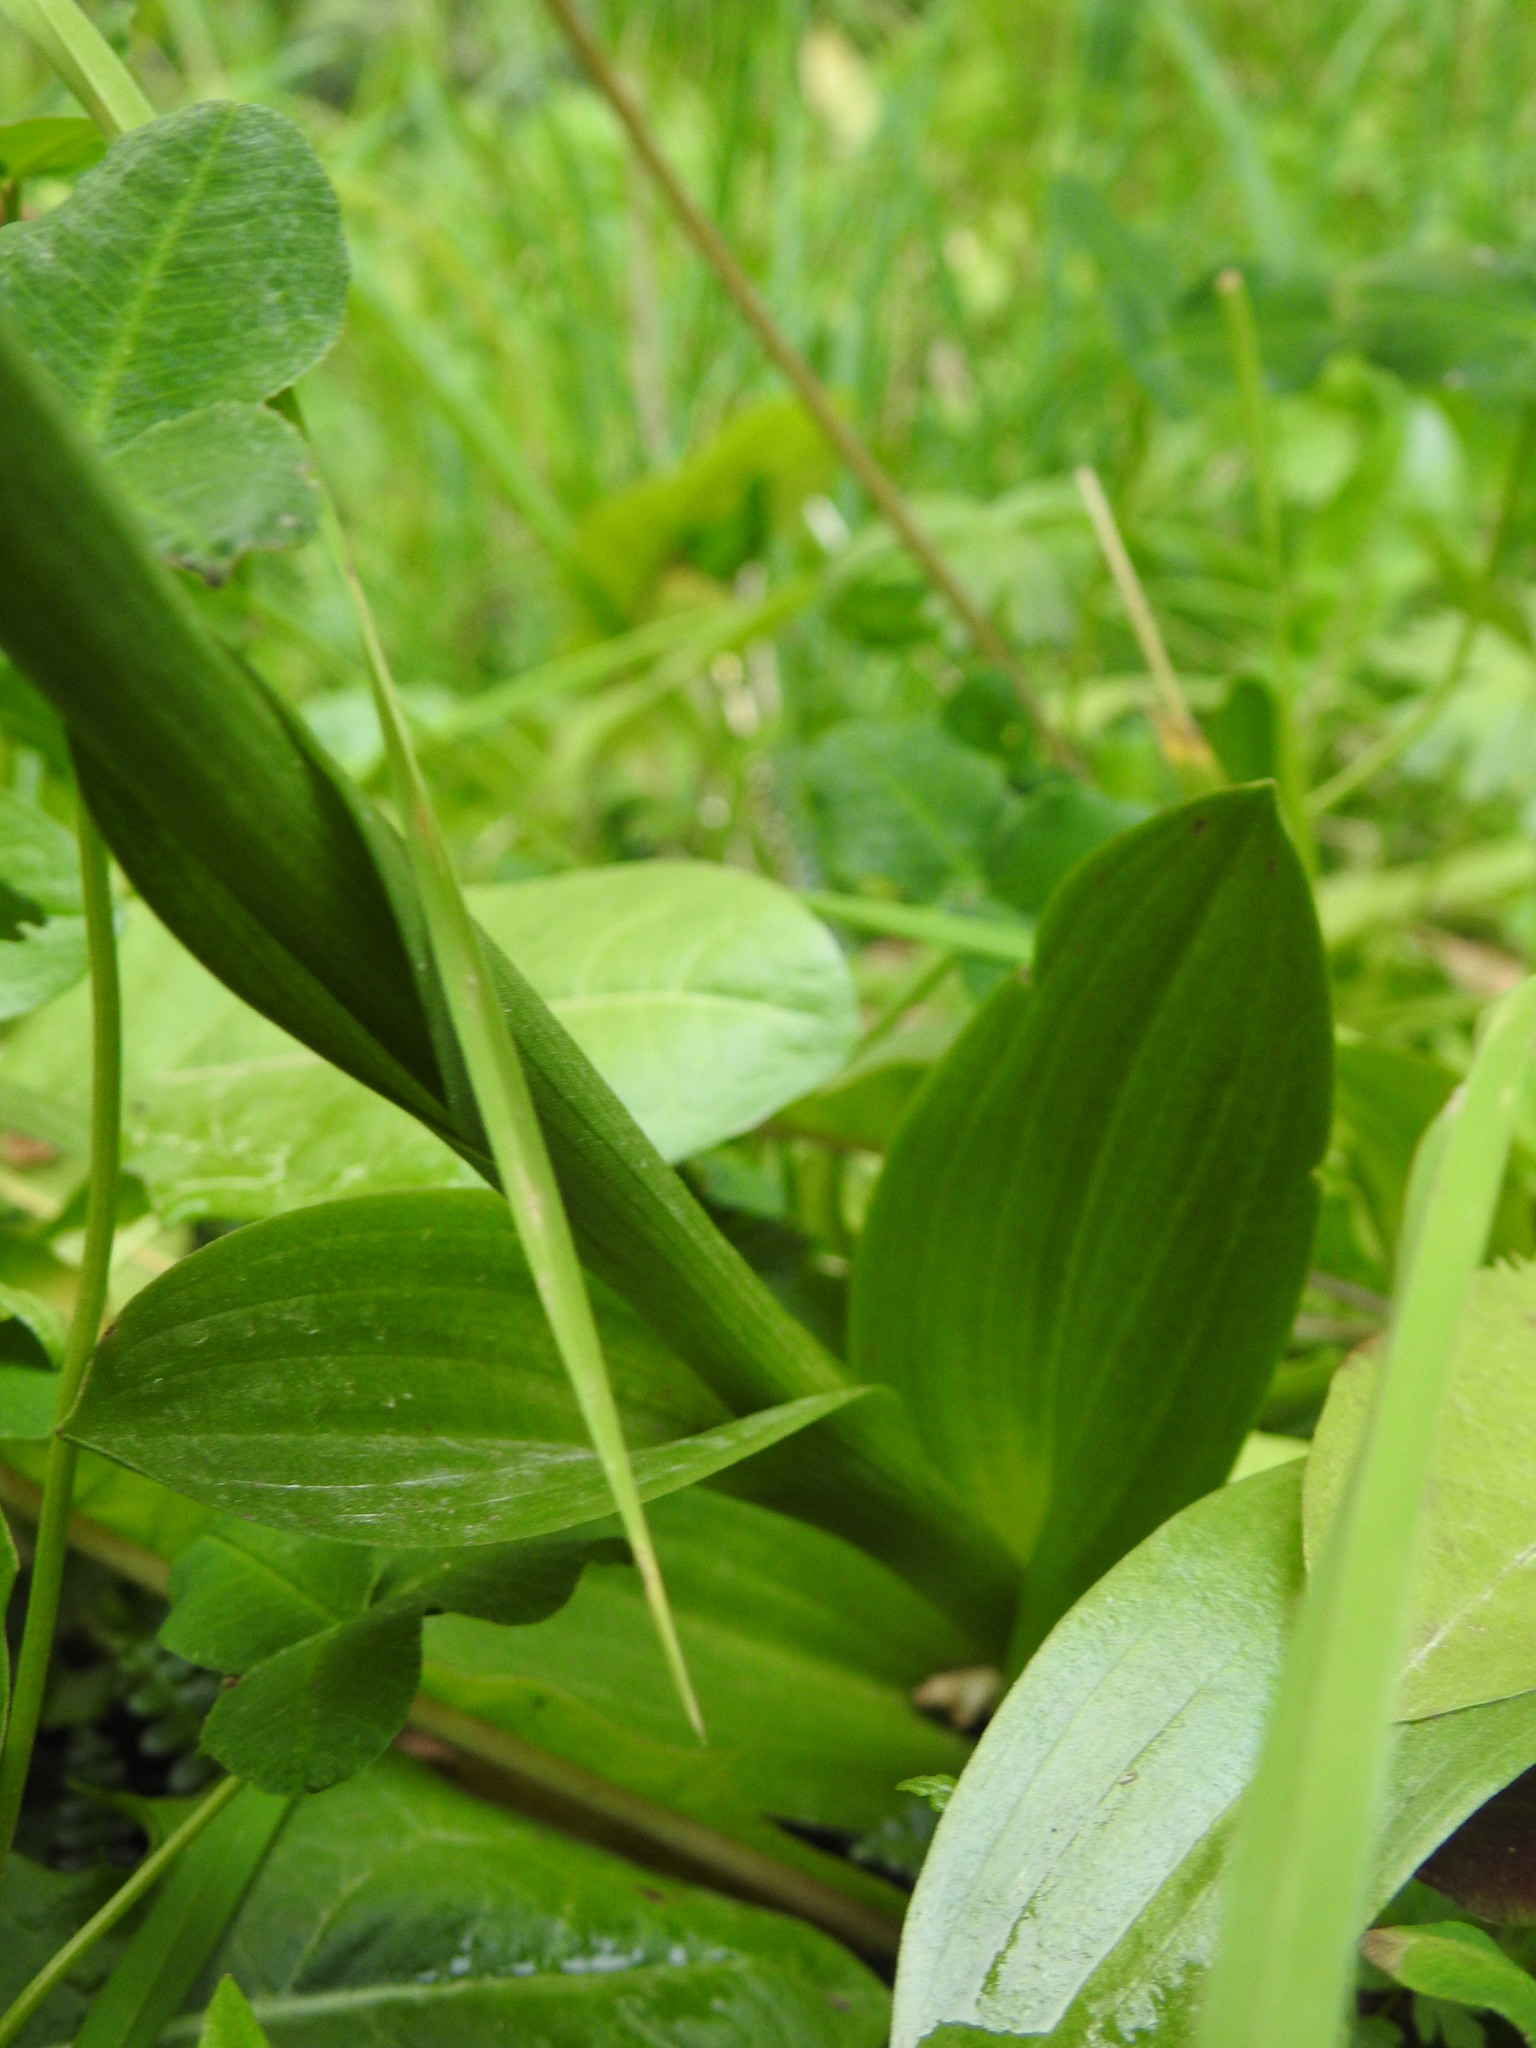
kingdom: Plantae
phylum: Tracheophyta
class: Liliopsida
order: Asparagales
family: Orchidaceae
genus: Gavilea
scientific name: Gavilea australis
